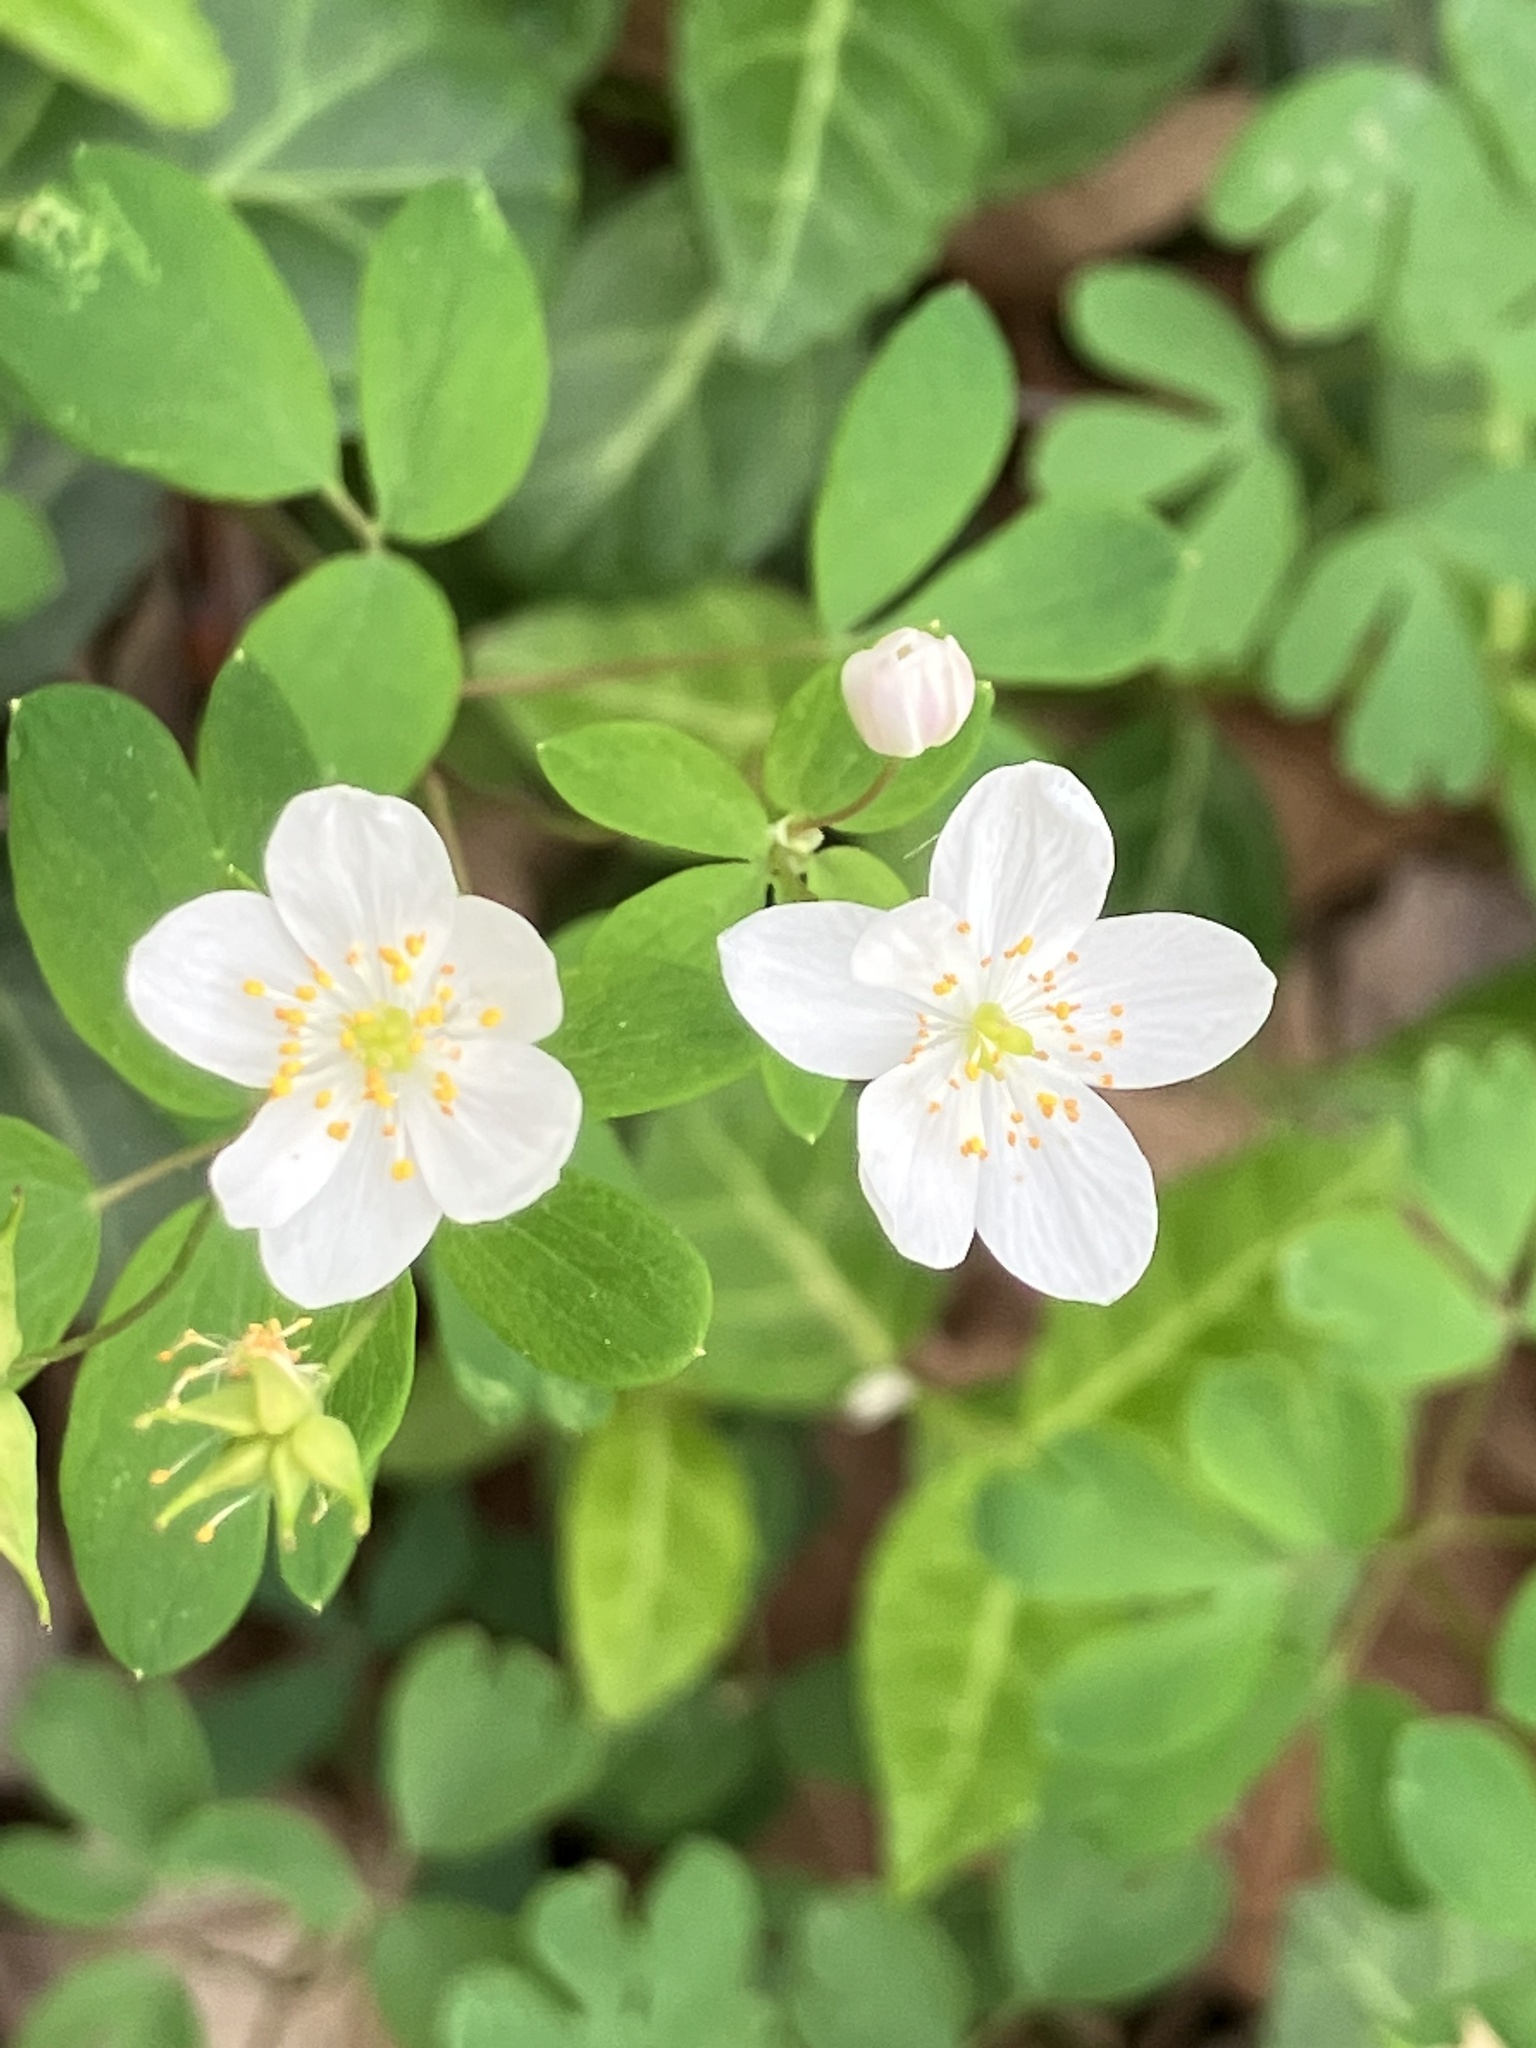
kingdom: Plantae
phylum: Tracheophyta
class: Magnoliopsida
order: Ranunculales
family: Ranunculaceae
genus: Enemion
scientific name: Enemion biternatum
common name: Eastern false rue-anemone
